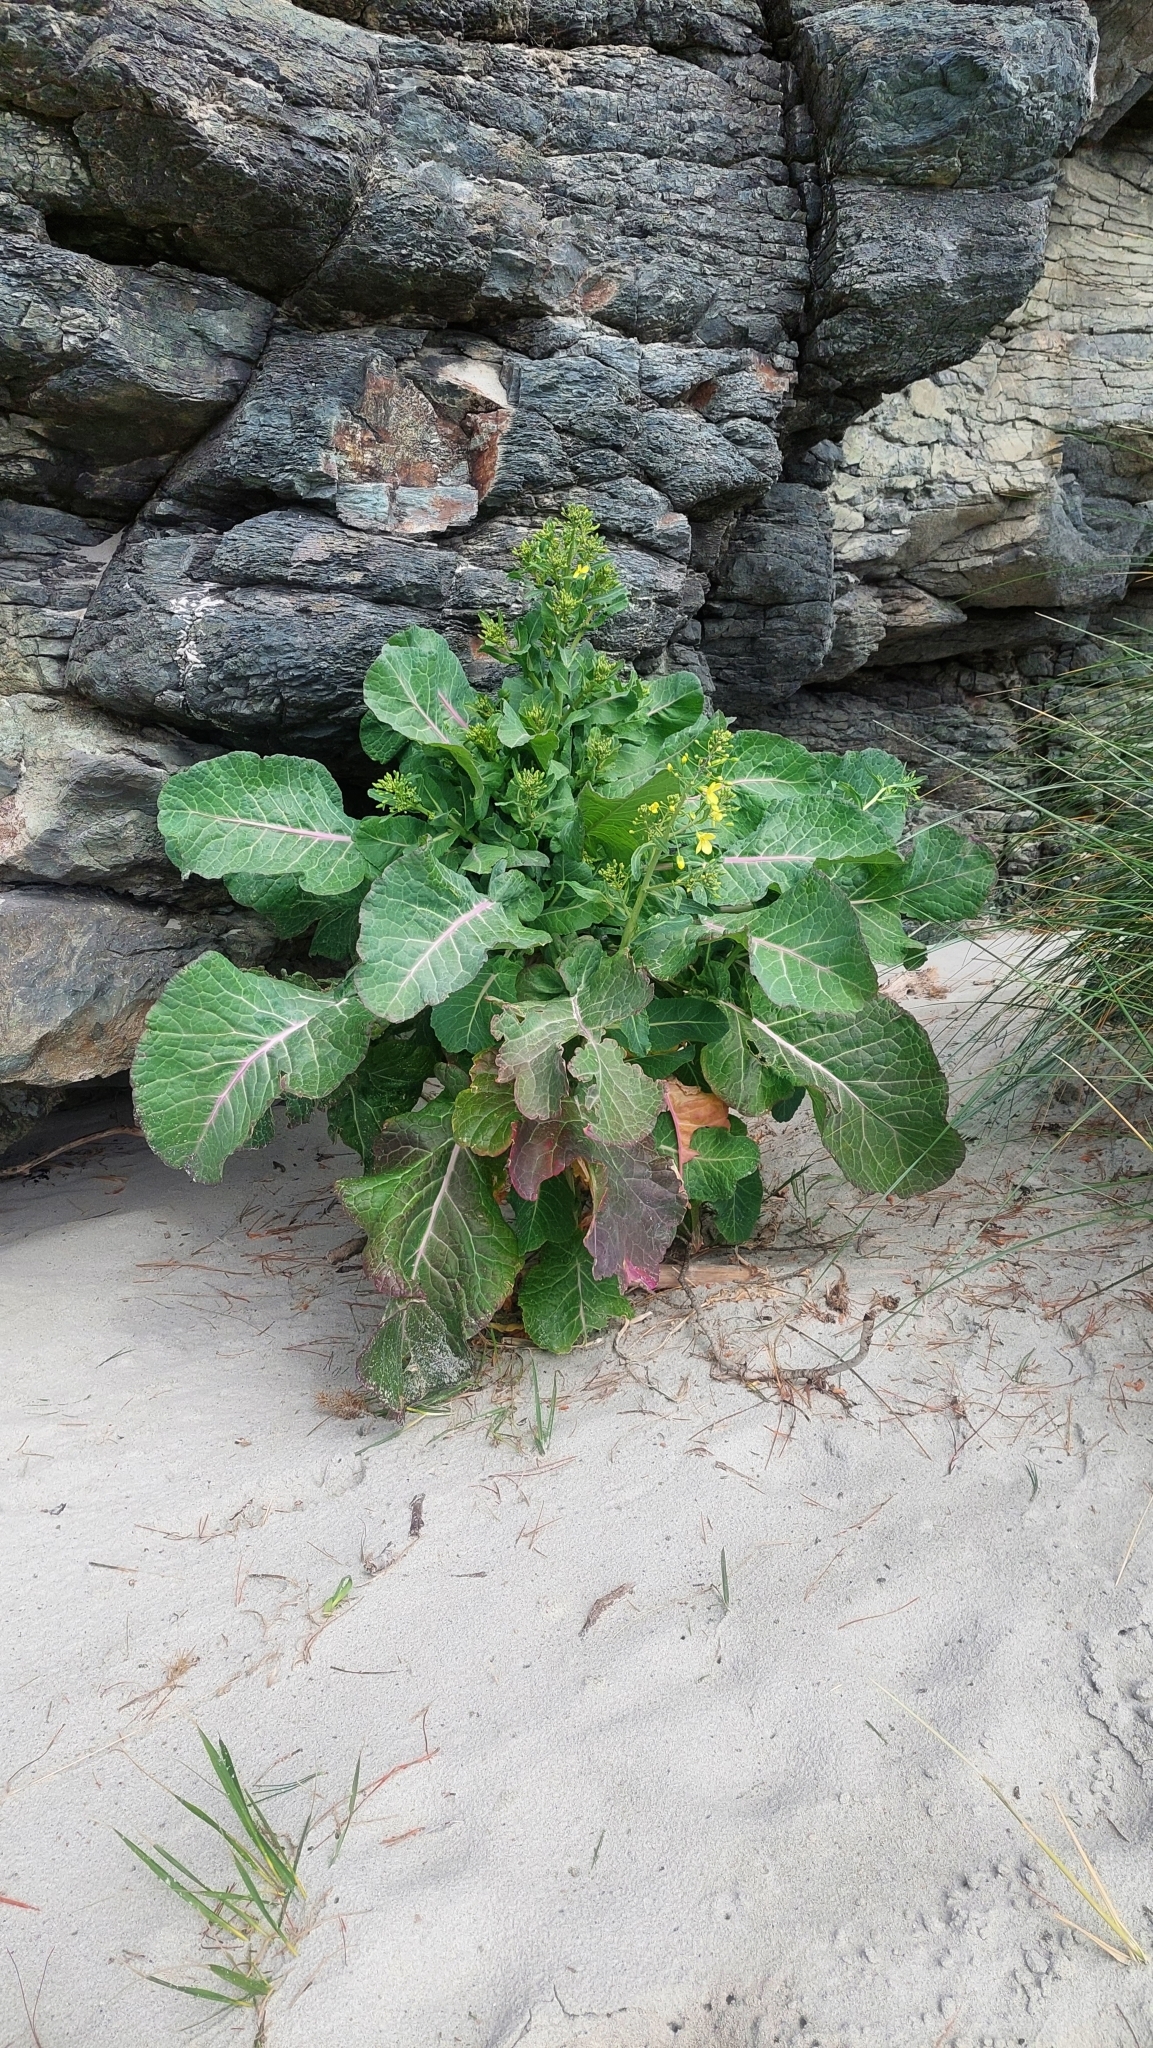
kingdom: Plantae
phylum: Tracheophyta
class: Magnoliopsida
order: Brassicales
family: Brassicaceae
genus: Brassica
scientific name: Brassica oleracea
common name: Cabbage
